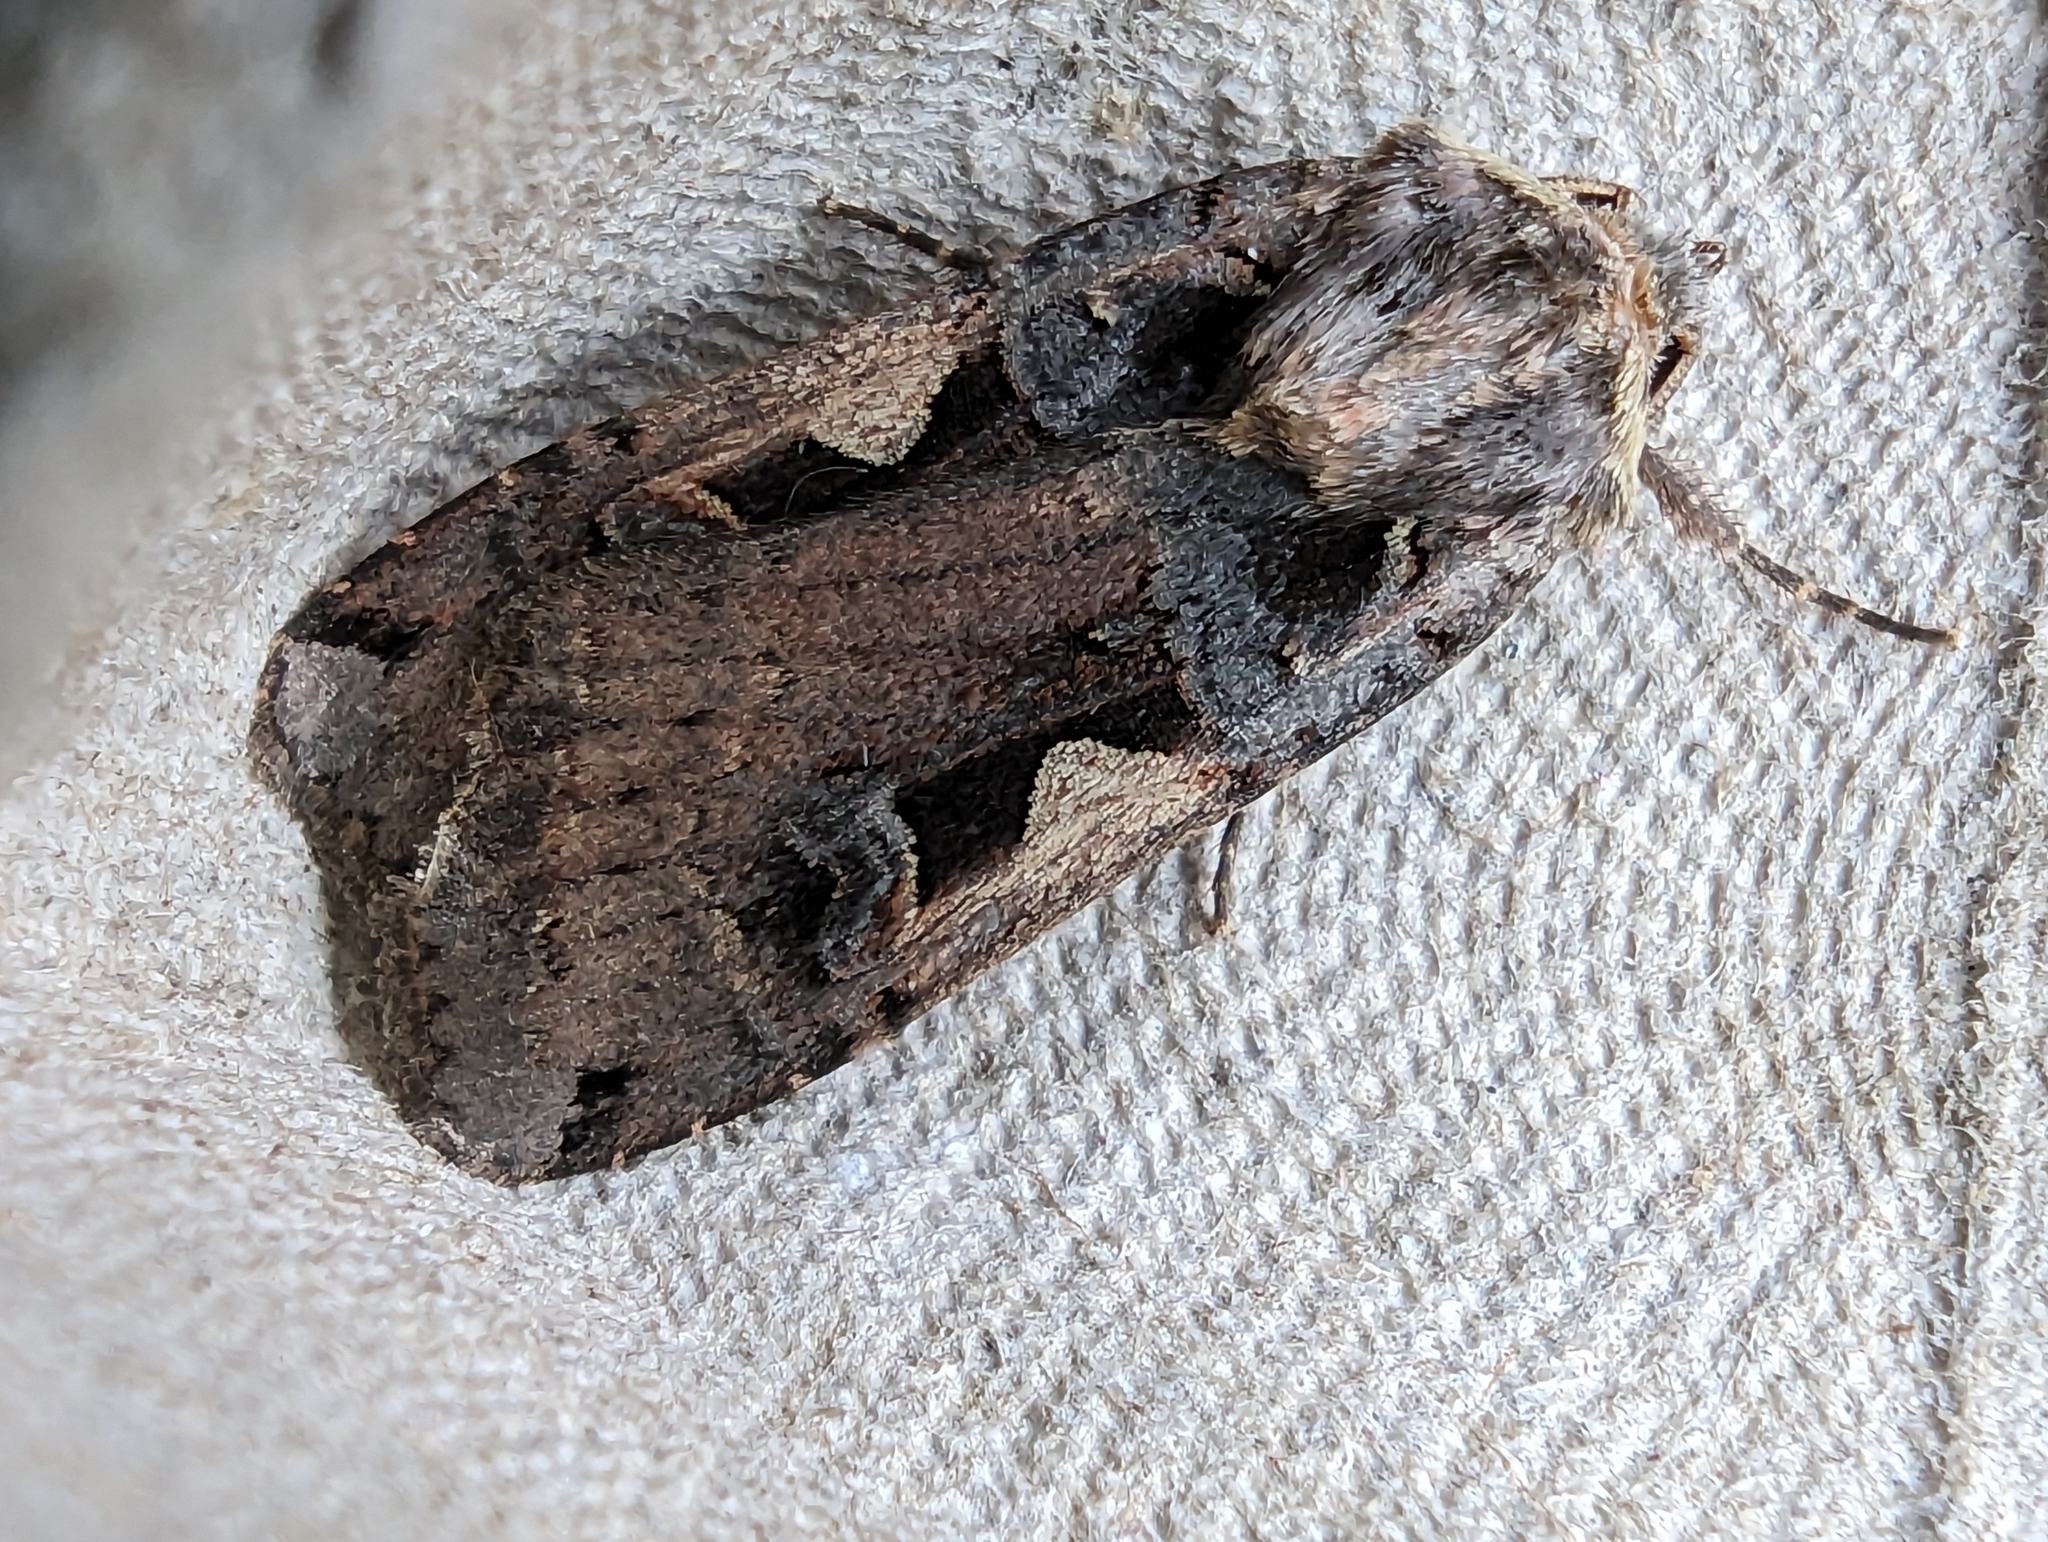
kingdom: Animalia
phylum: Arthropoda
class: Insecta
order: Lepidoptera
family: Noctuidae
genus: Xestia
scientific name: Xestia c-nigrum
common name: Setaceous hebrew character
